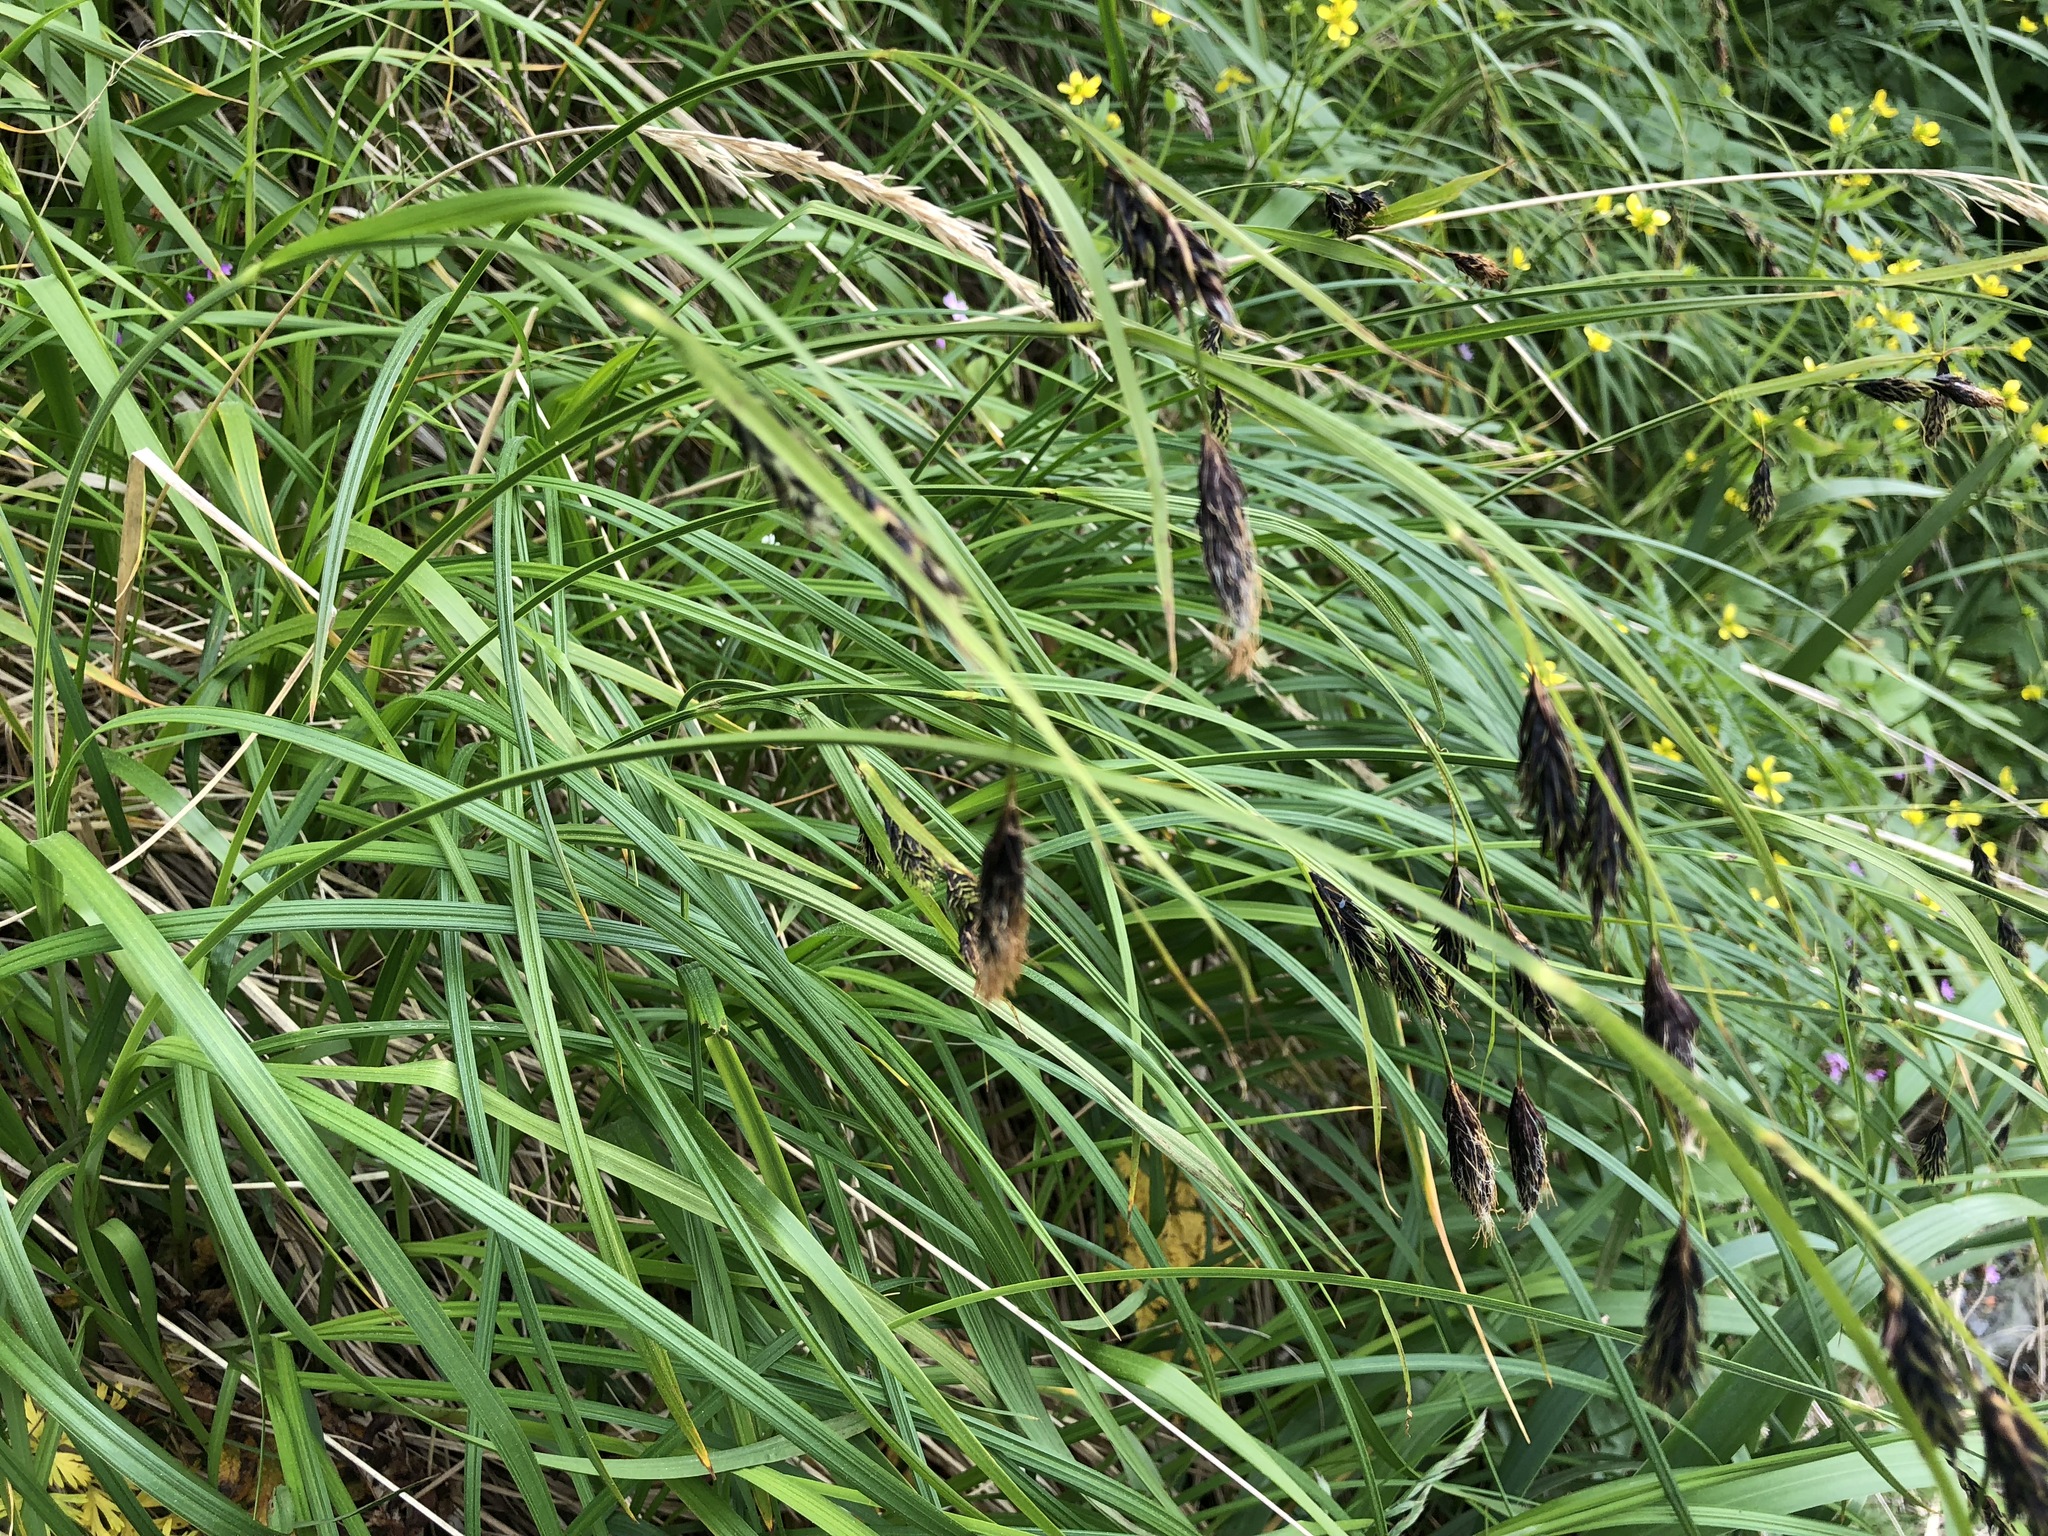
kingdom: Plantae
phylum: Tracheophyta
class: Liliopsida
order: Poales
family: Cyperaceae
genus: Carex
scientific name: Carex macrochaeta
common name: Alaska large awn sedge
